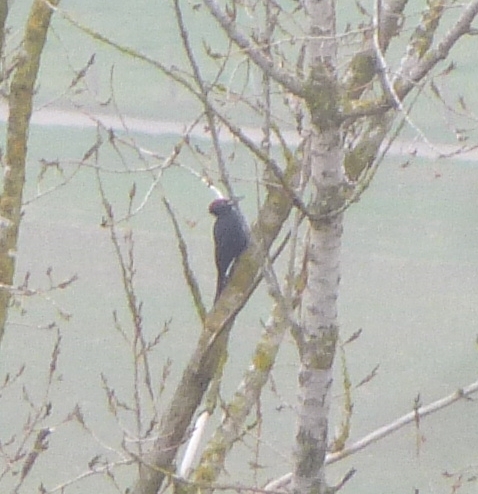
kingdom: Animalia
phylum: Chordata
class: Aves
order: Piciformes
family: Picidae
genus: Dryocopus
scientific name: Dryocopus martius
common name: Black woodpecker
